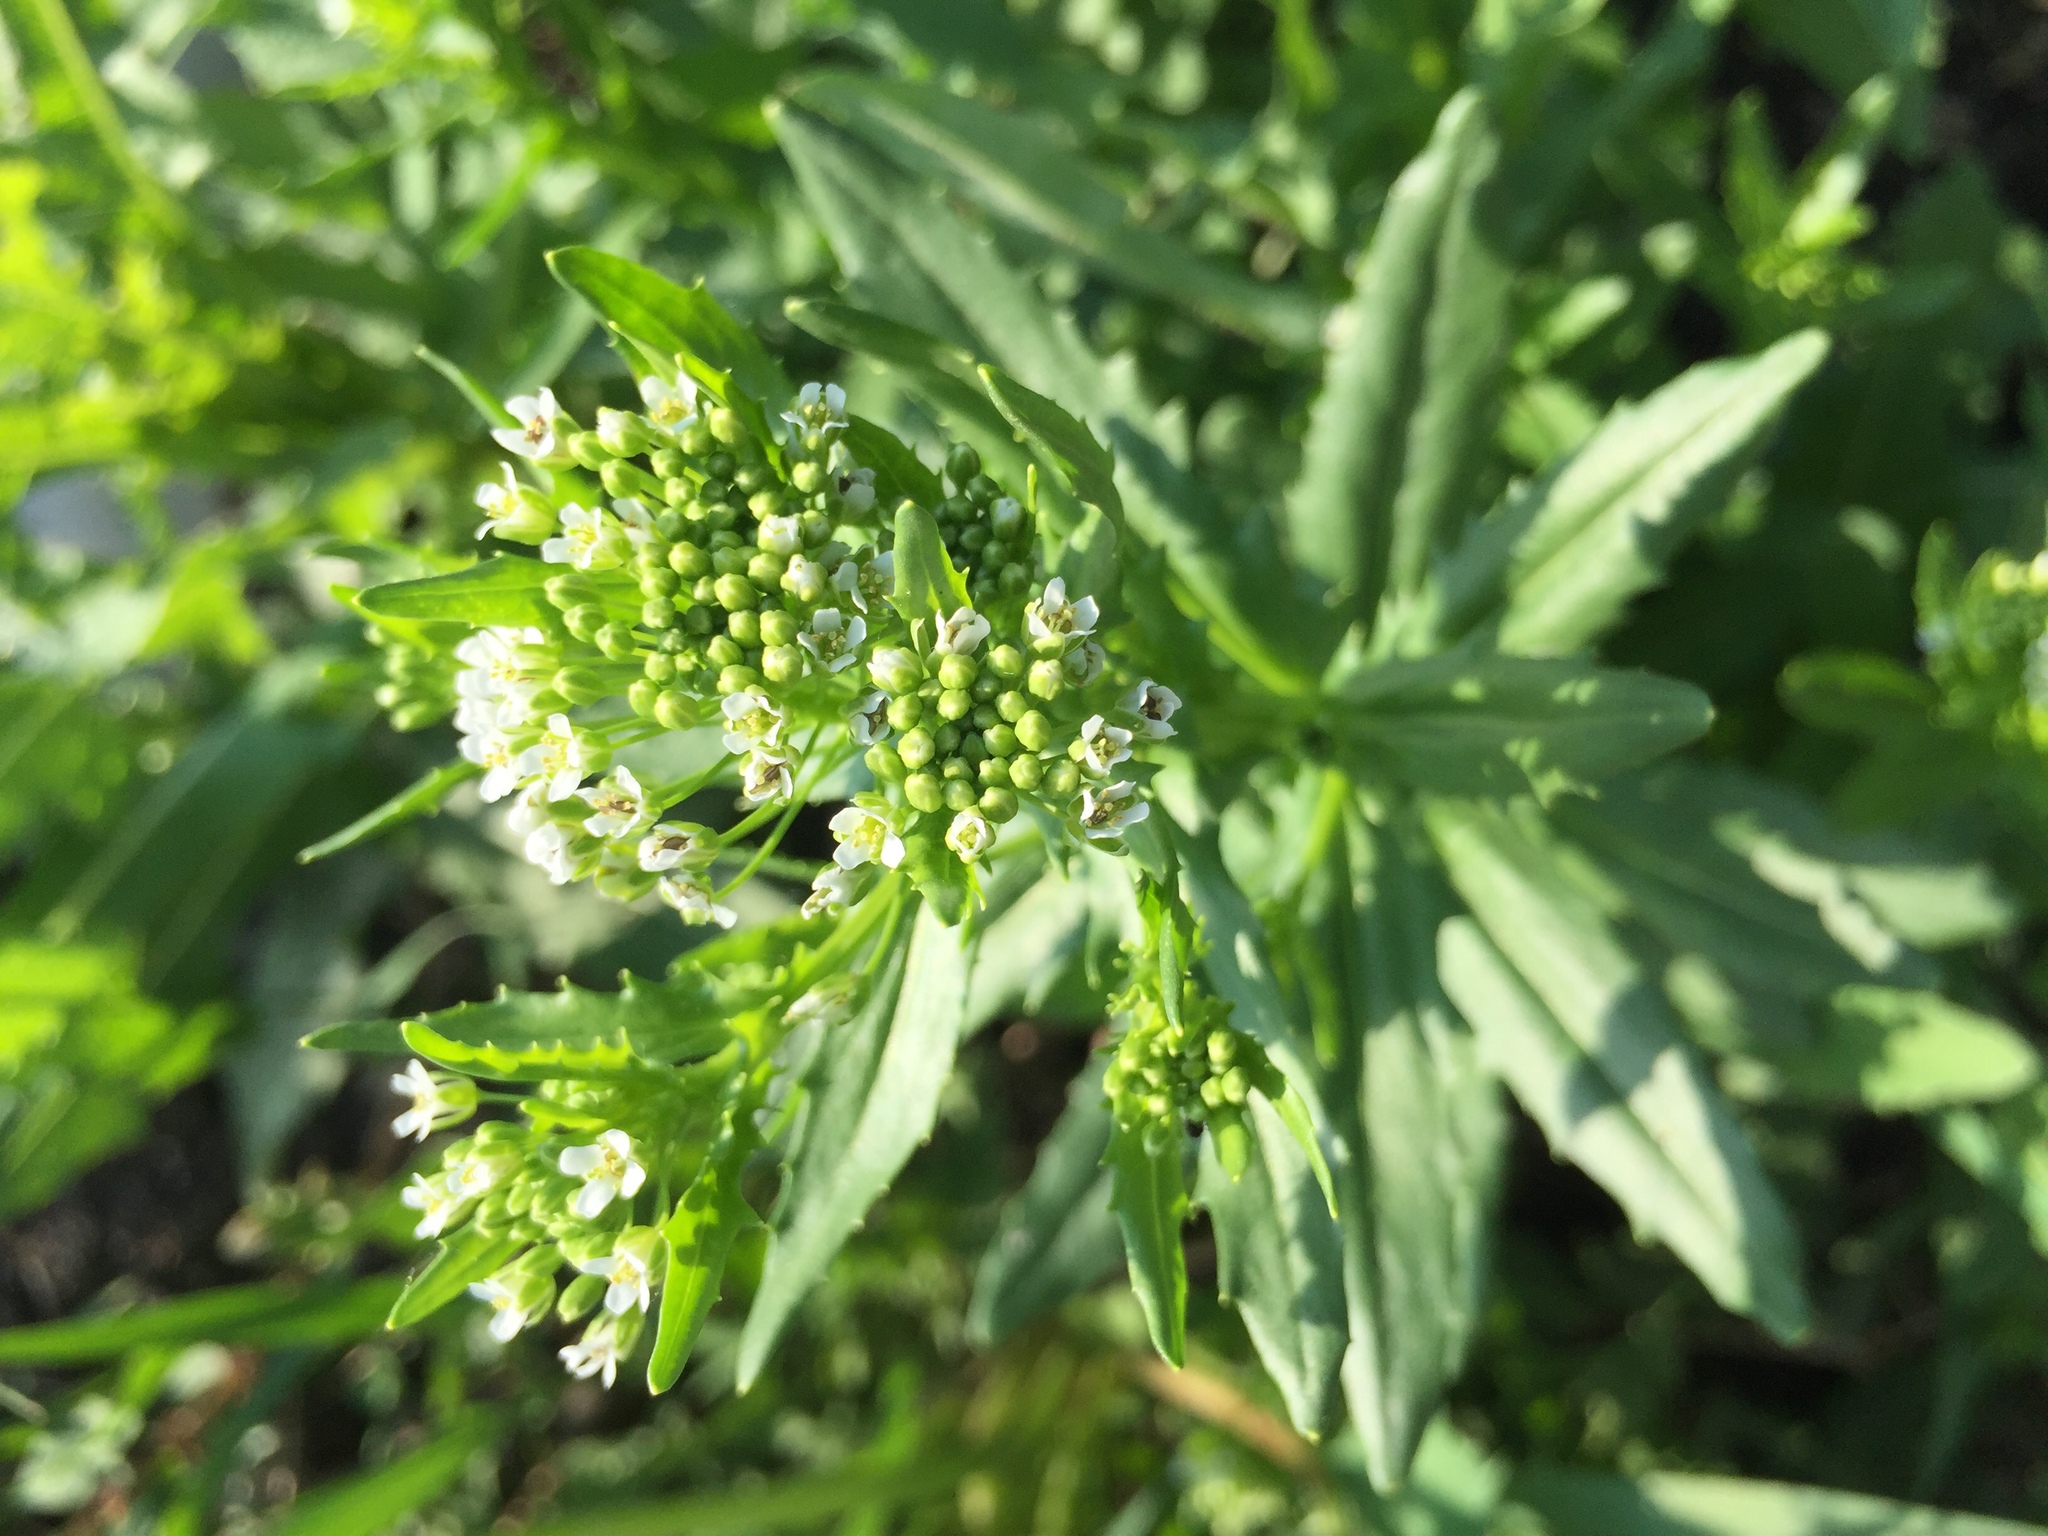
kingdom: Plantae
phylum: Tracheophyta
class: Magnoliopsida
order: Brassicales
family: Brassicaceae
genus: Thlaspi
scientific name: Thlaspi arvense
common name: Field pennycress
